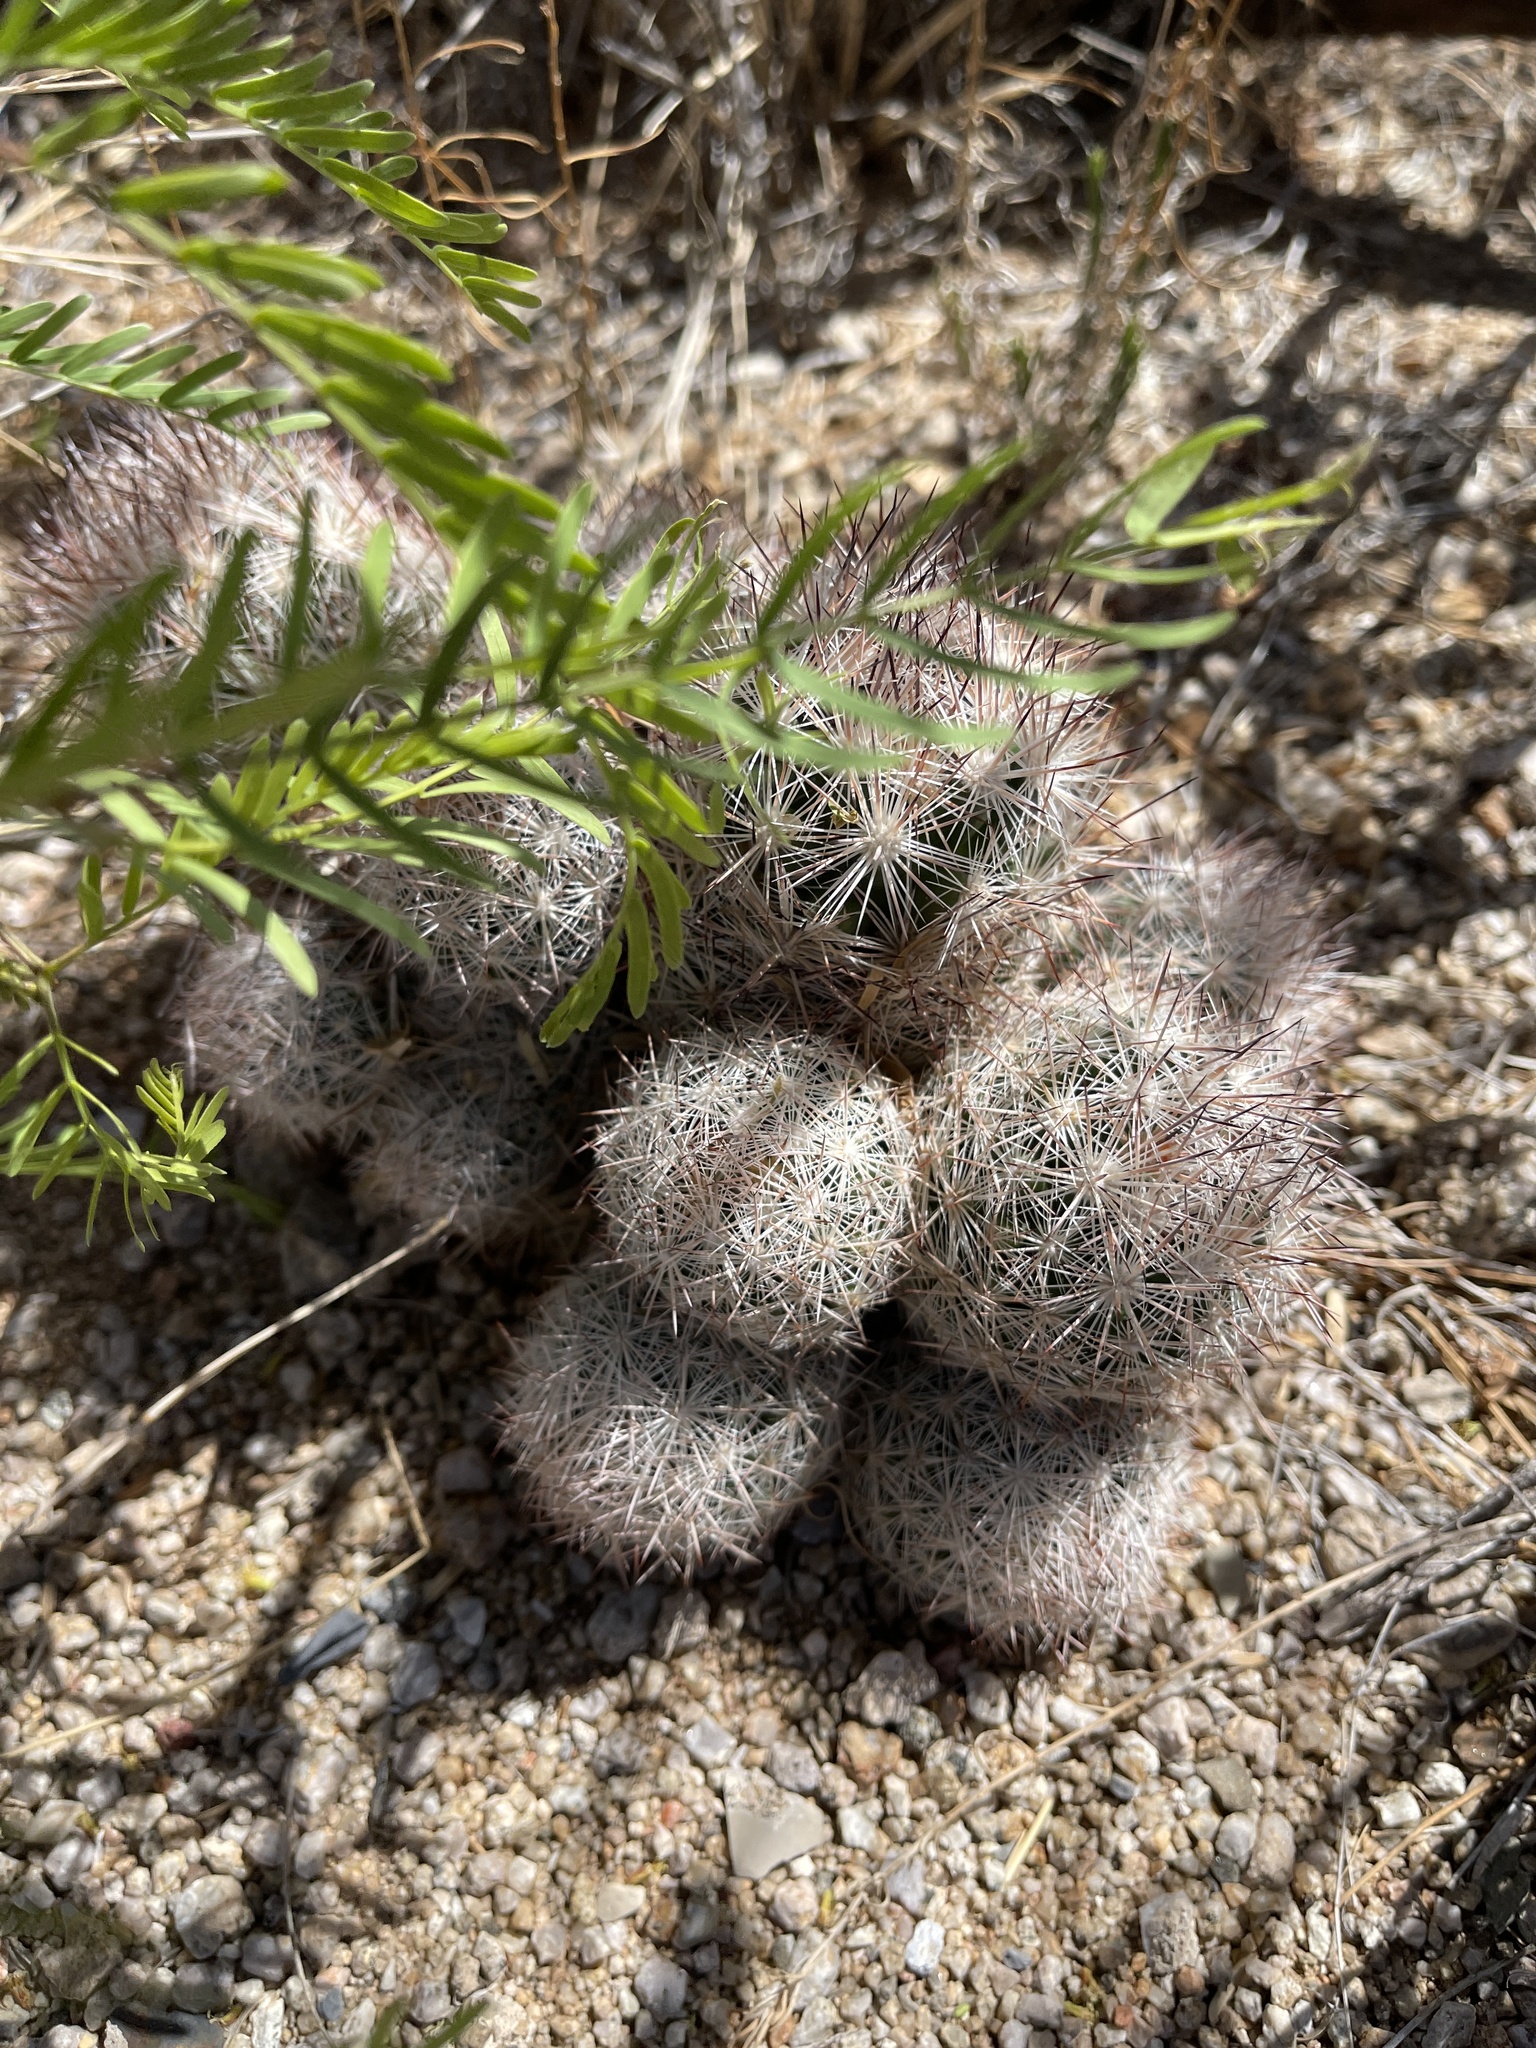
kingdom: Plantae
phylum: Tracheophyta
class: Magnoliopsida
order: Caryophyllales
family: Cactaceae
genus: Pelecyphora
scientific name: Pelecyphora vivipara
